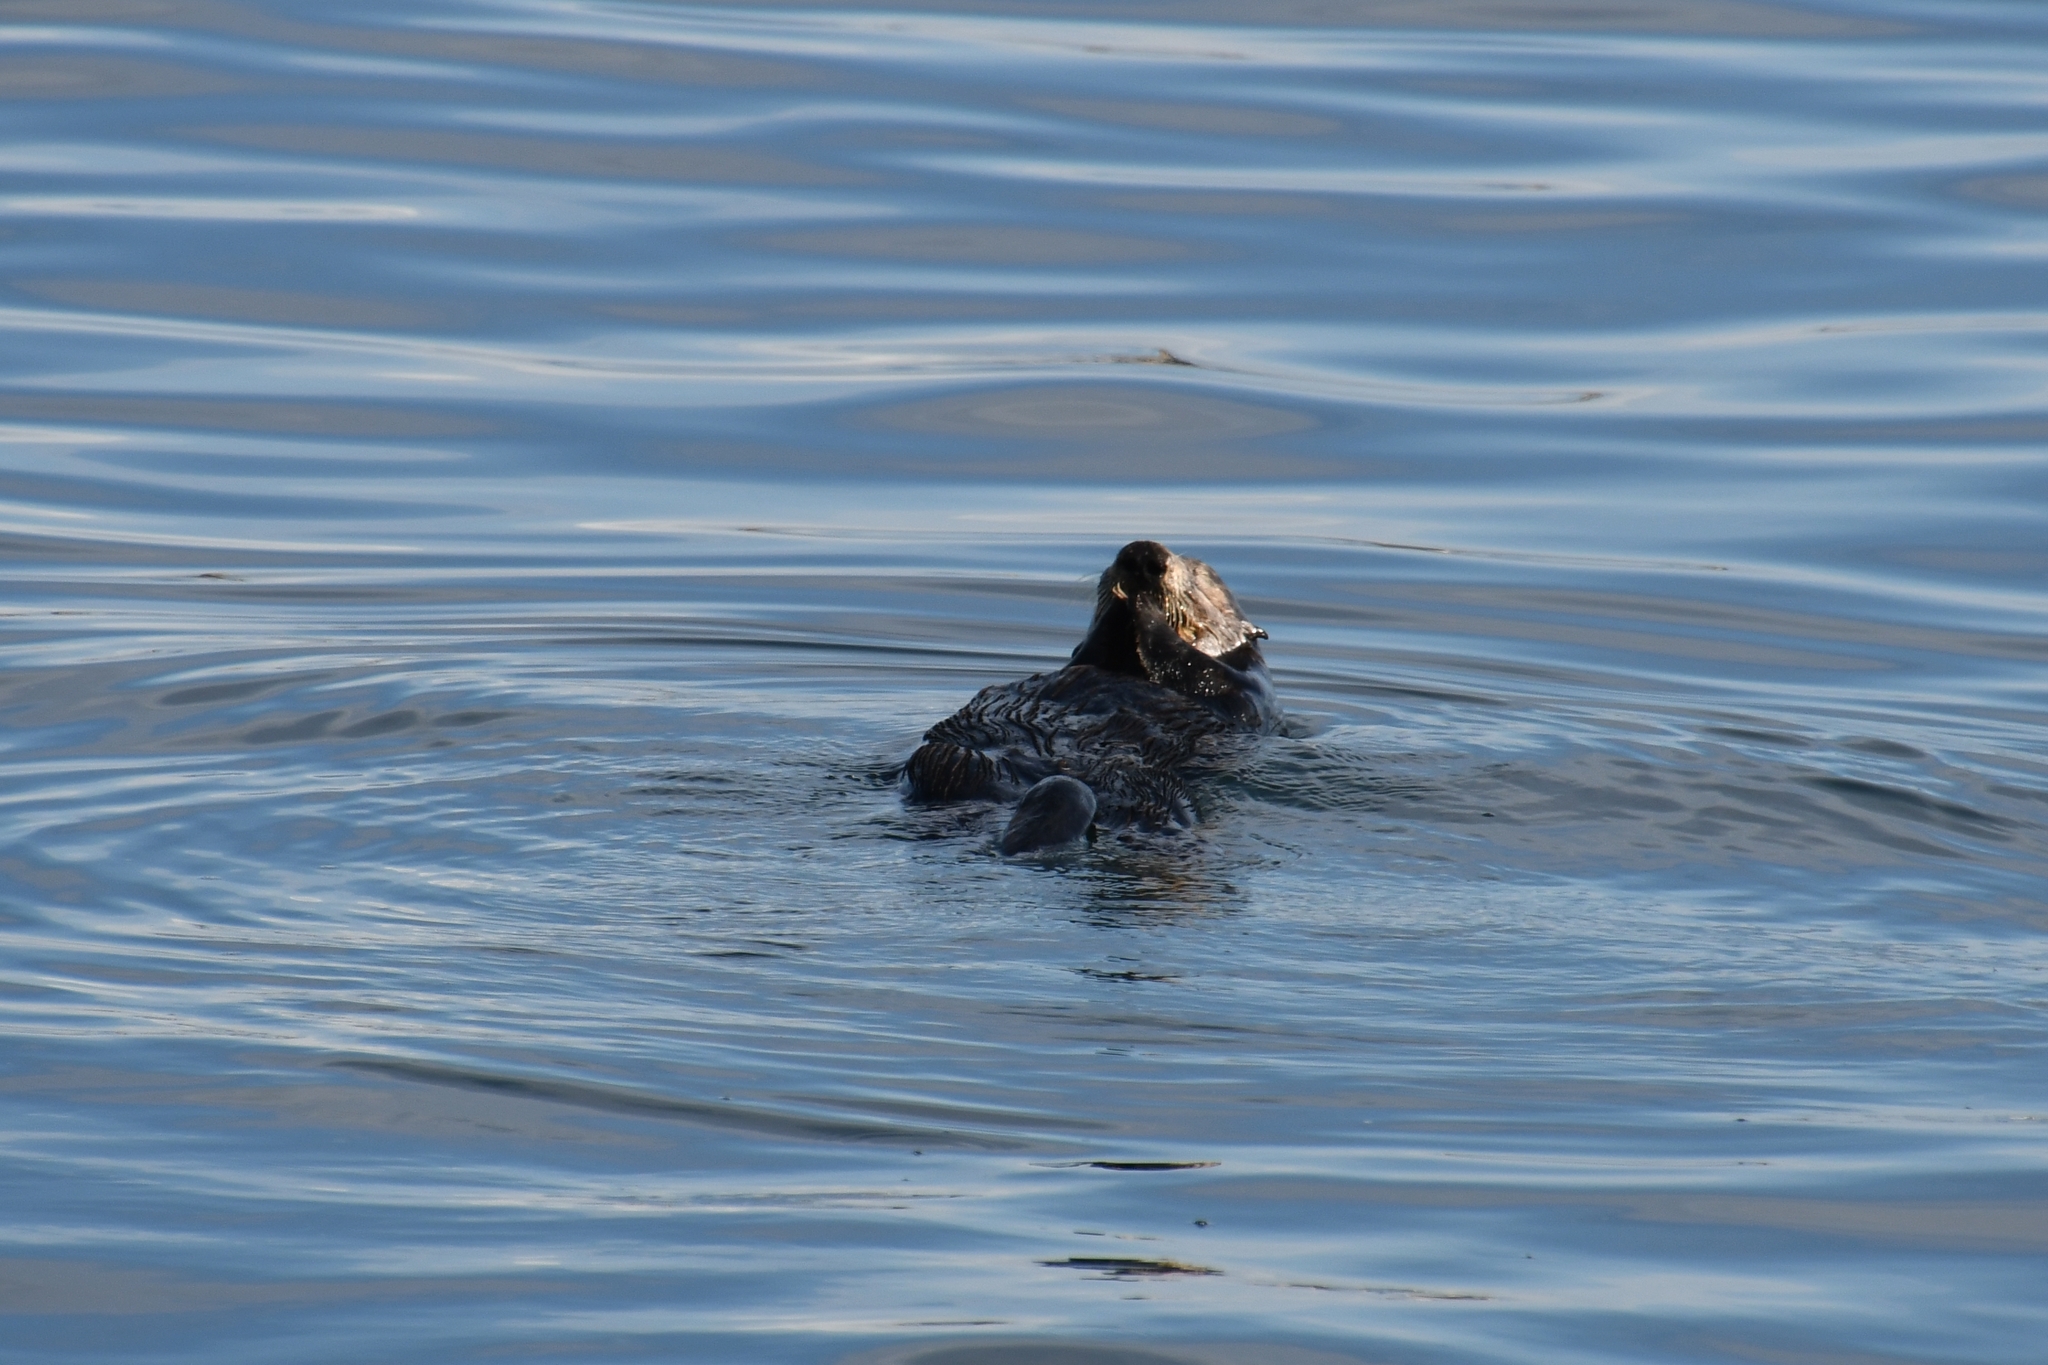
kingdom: Animalia
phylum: Chordata
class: Mammalia
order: Carnivora
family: Mustelidae
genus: Enhydra
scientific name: Enhydra lutris
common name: Sea otter
